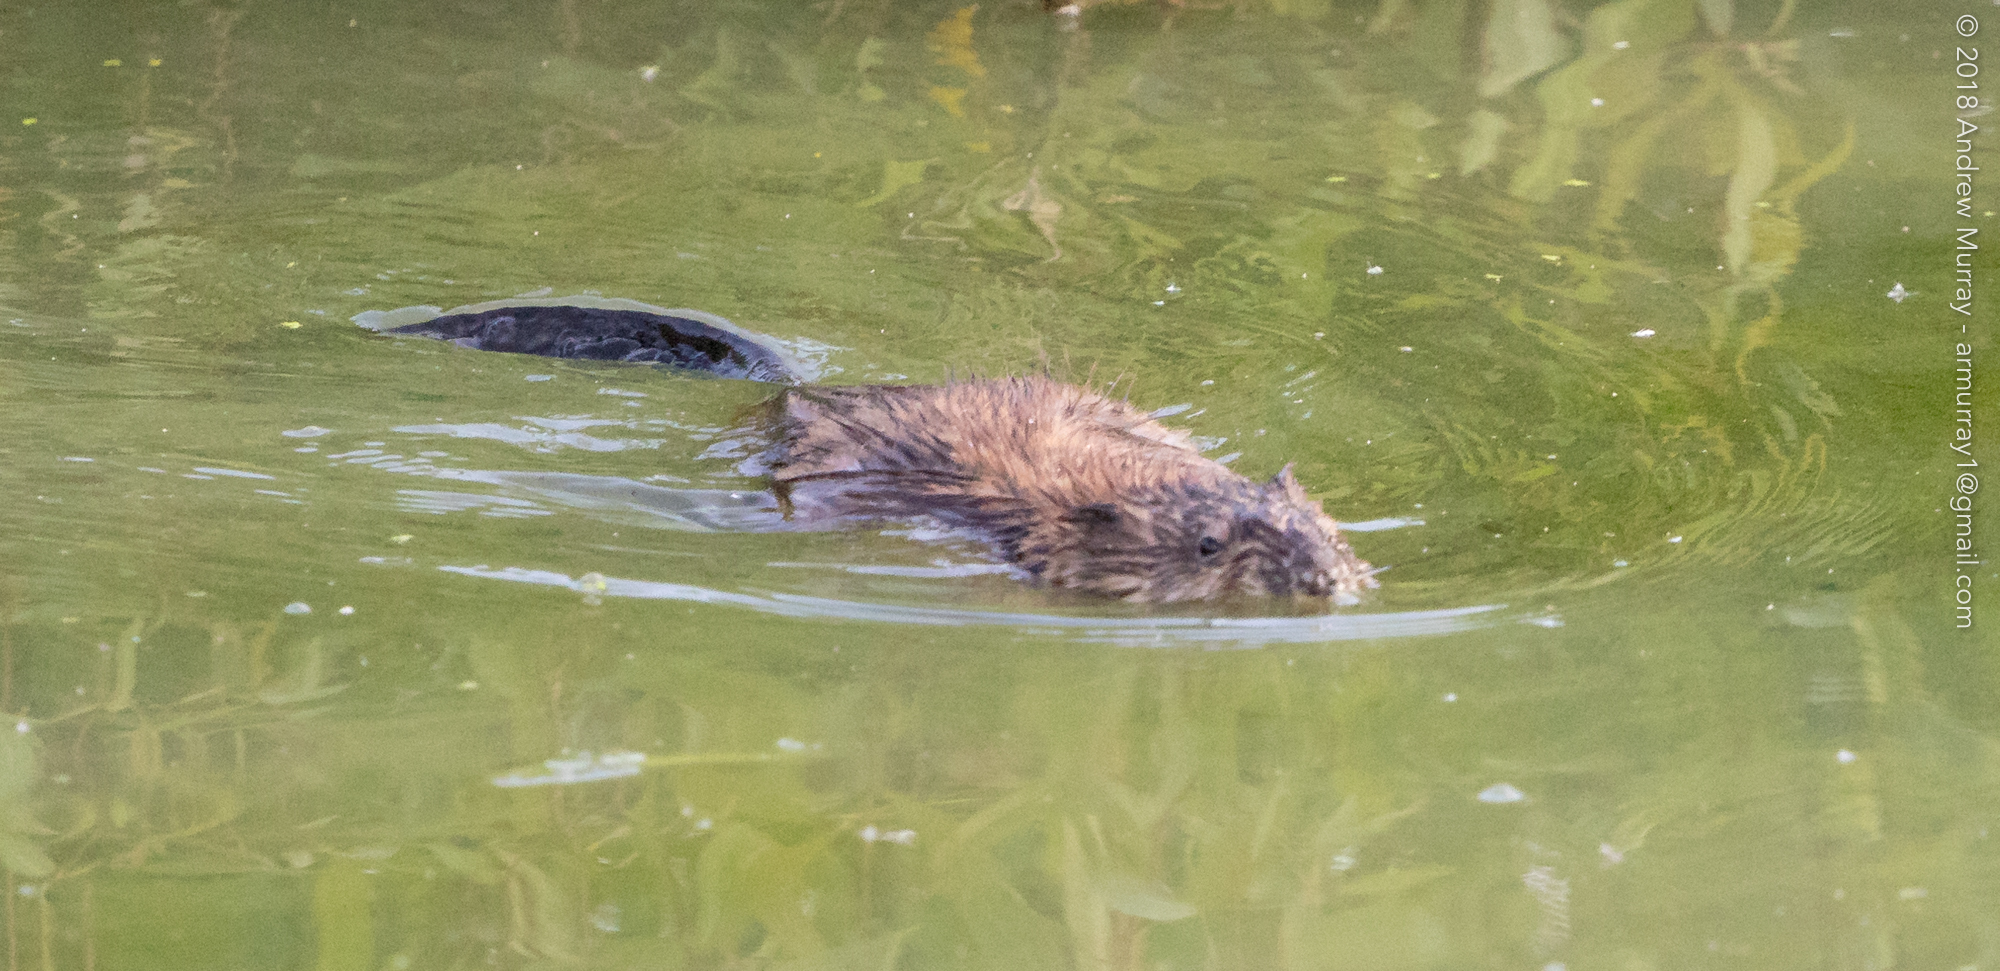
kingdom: Animalia
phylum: Chordata
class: Mammalia
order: Rodentia
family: Cricetidae
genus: Ondatra
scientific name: Ondatra zibethicus
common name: Muskrat
